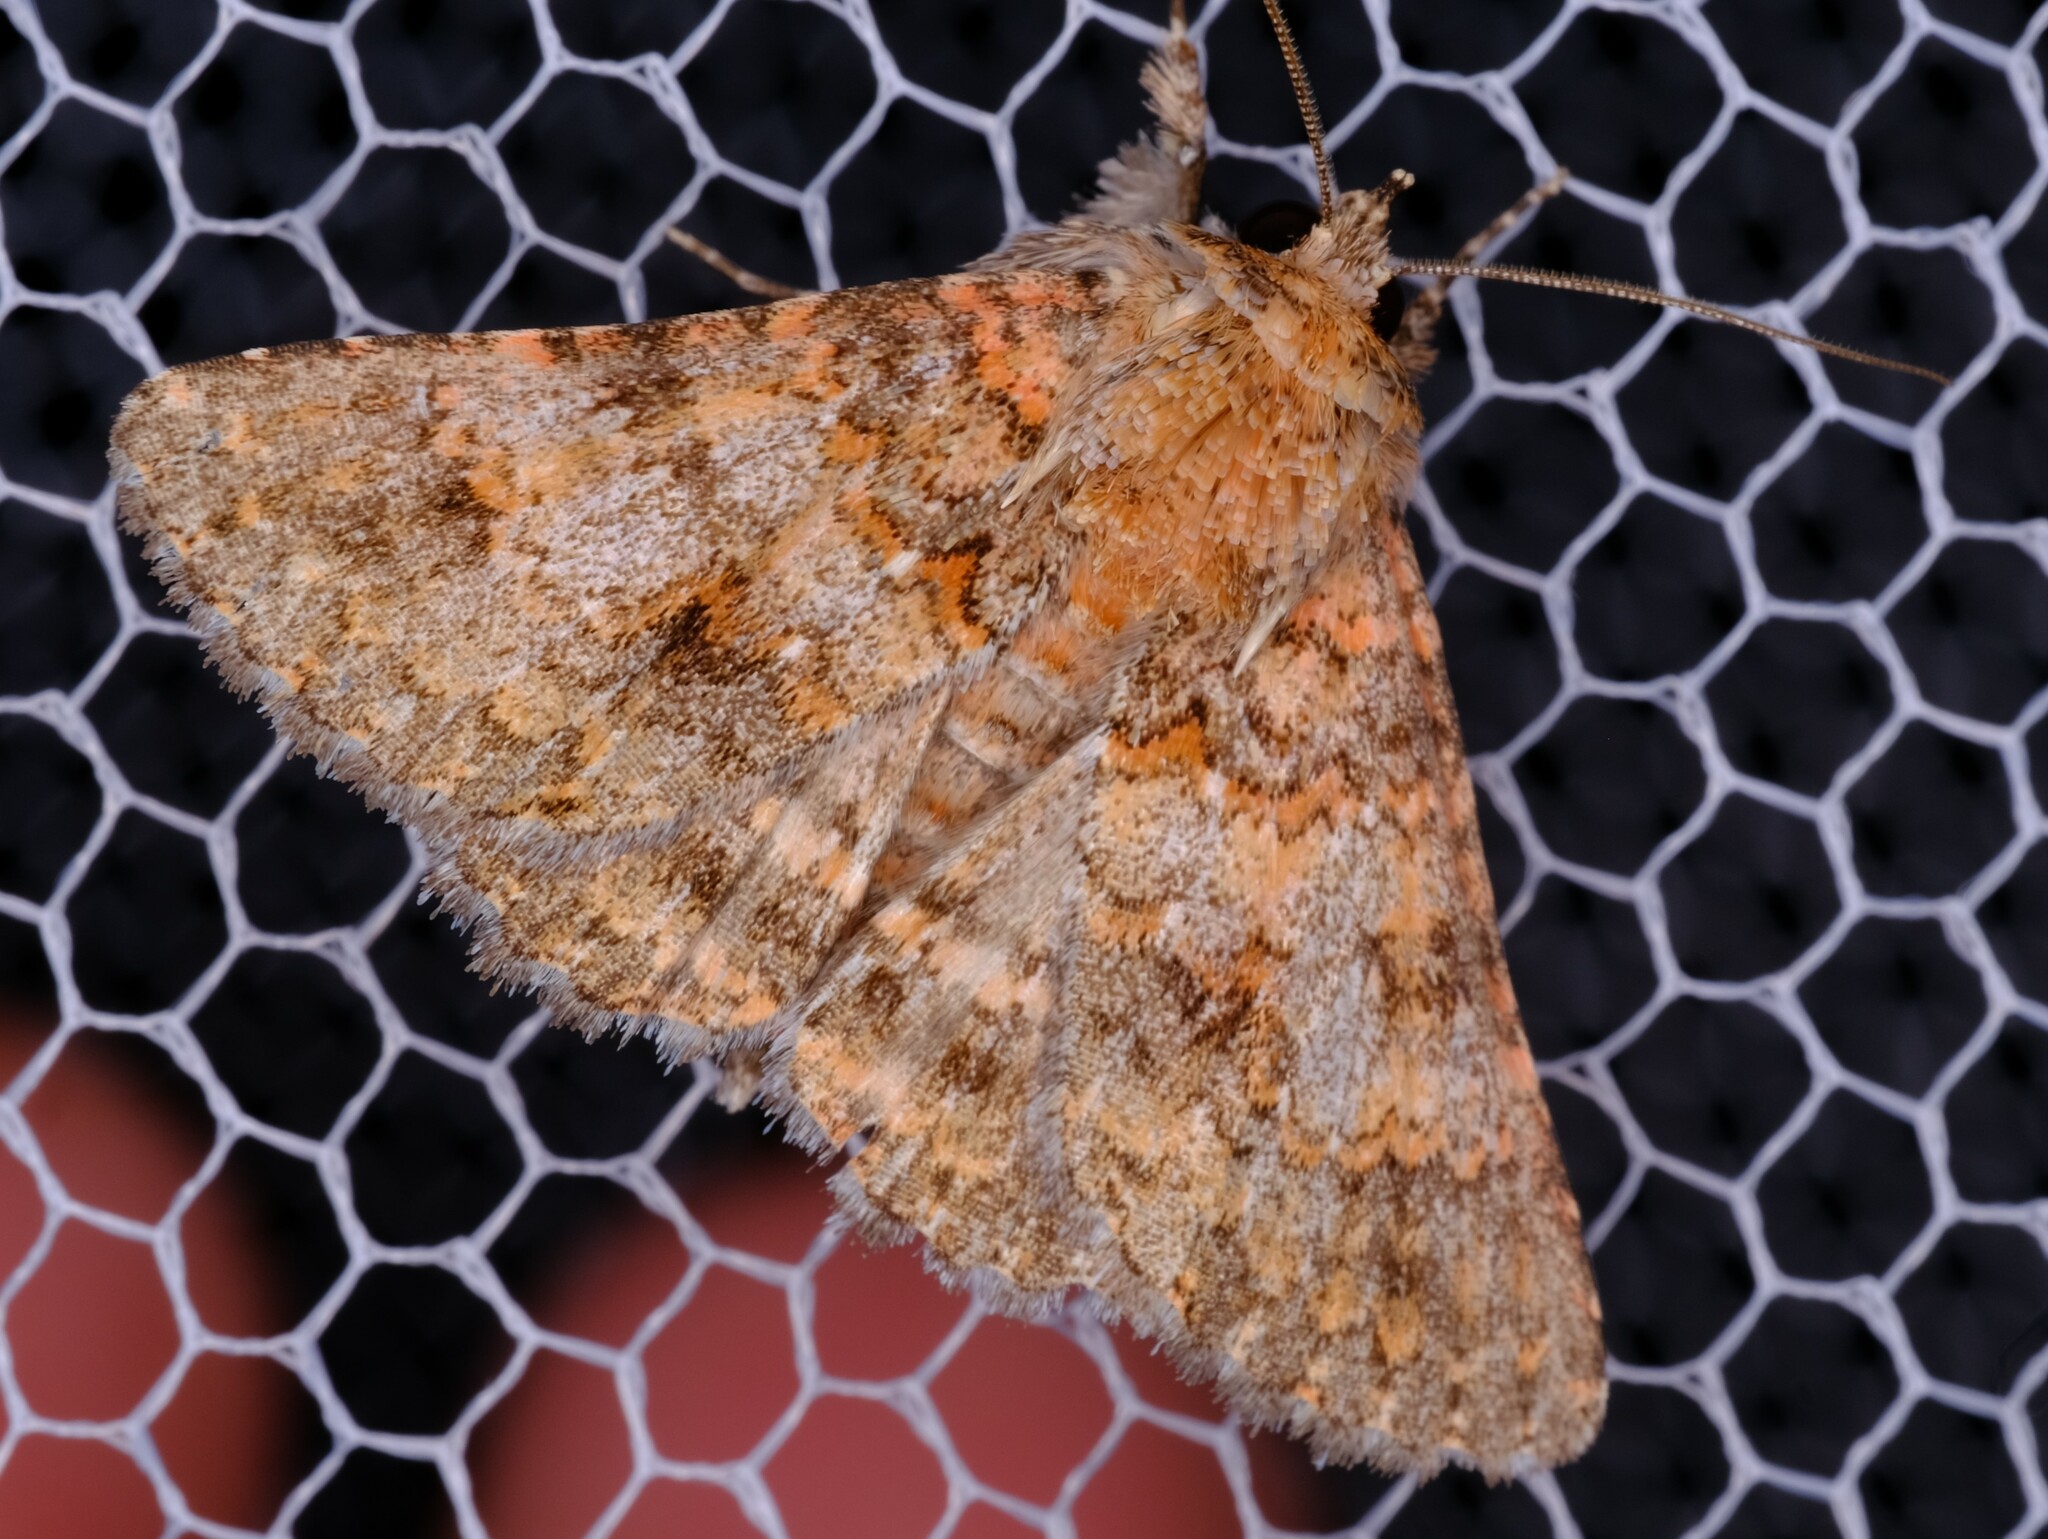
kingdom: Animalia
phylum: Arthropoda
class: Insecta
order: Lepidoptera
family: Erebidae
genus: Praxis
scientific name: Praxis marmarinopa
